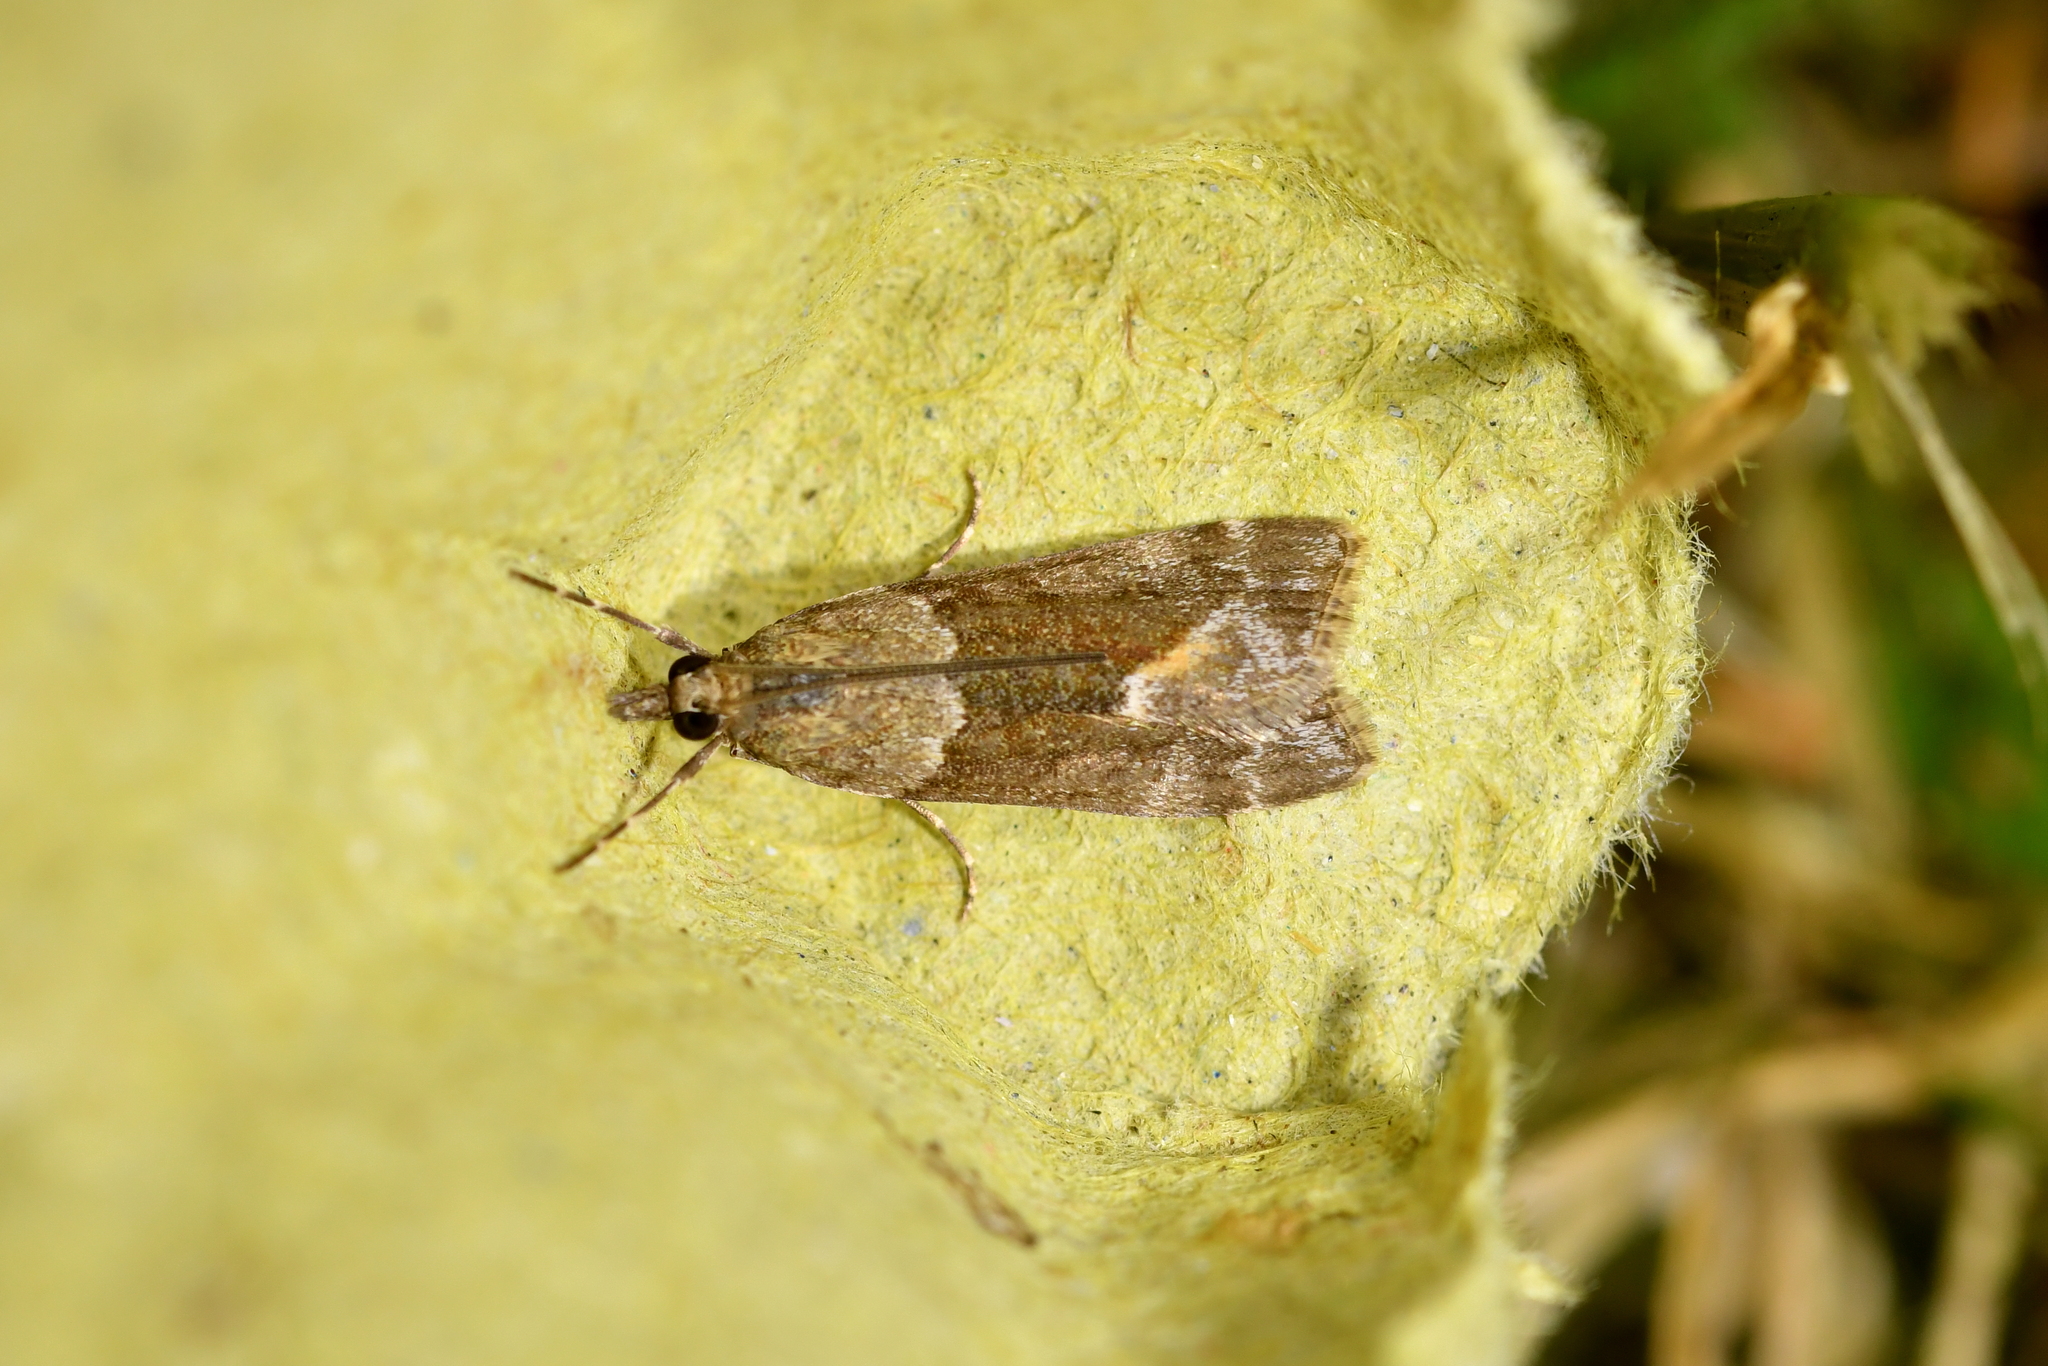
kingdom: Animalia
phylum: Arthropoda
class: Insecta
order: Lepidoptera
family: Crambidae
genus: Eudonia
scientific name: Eudonia submarginalis
